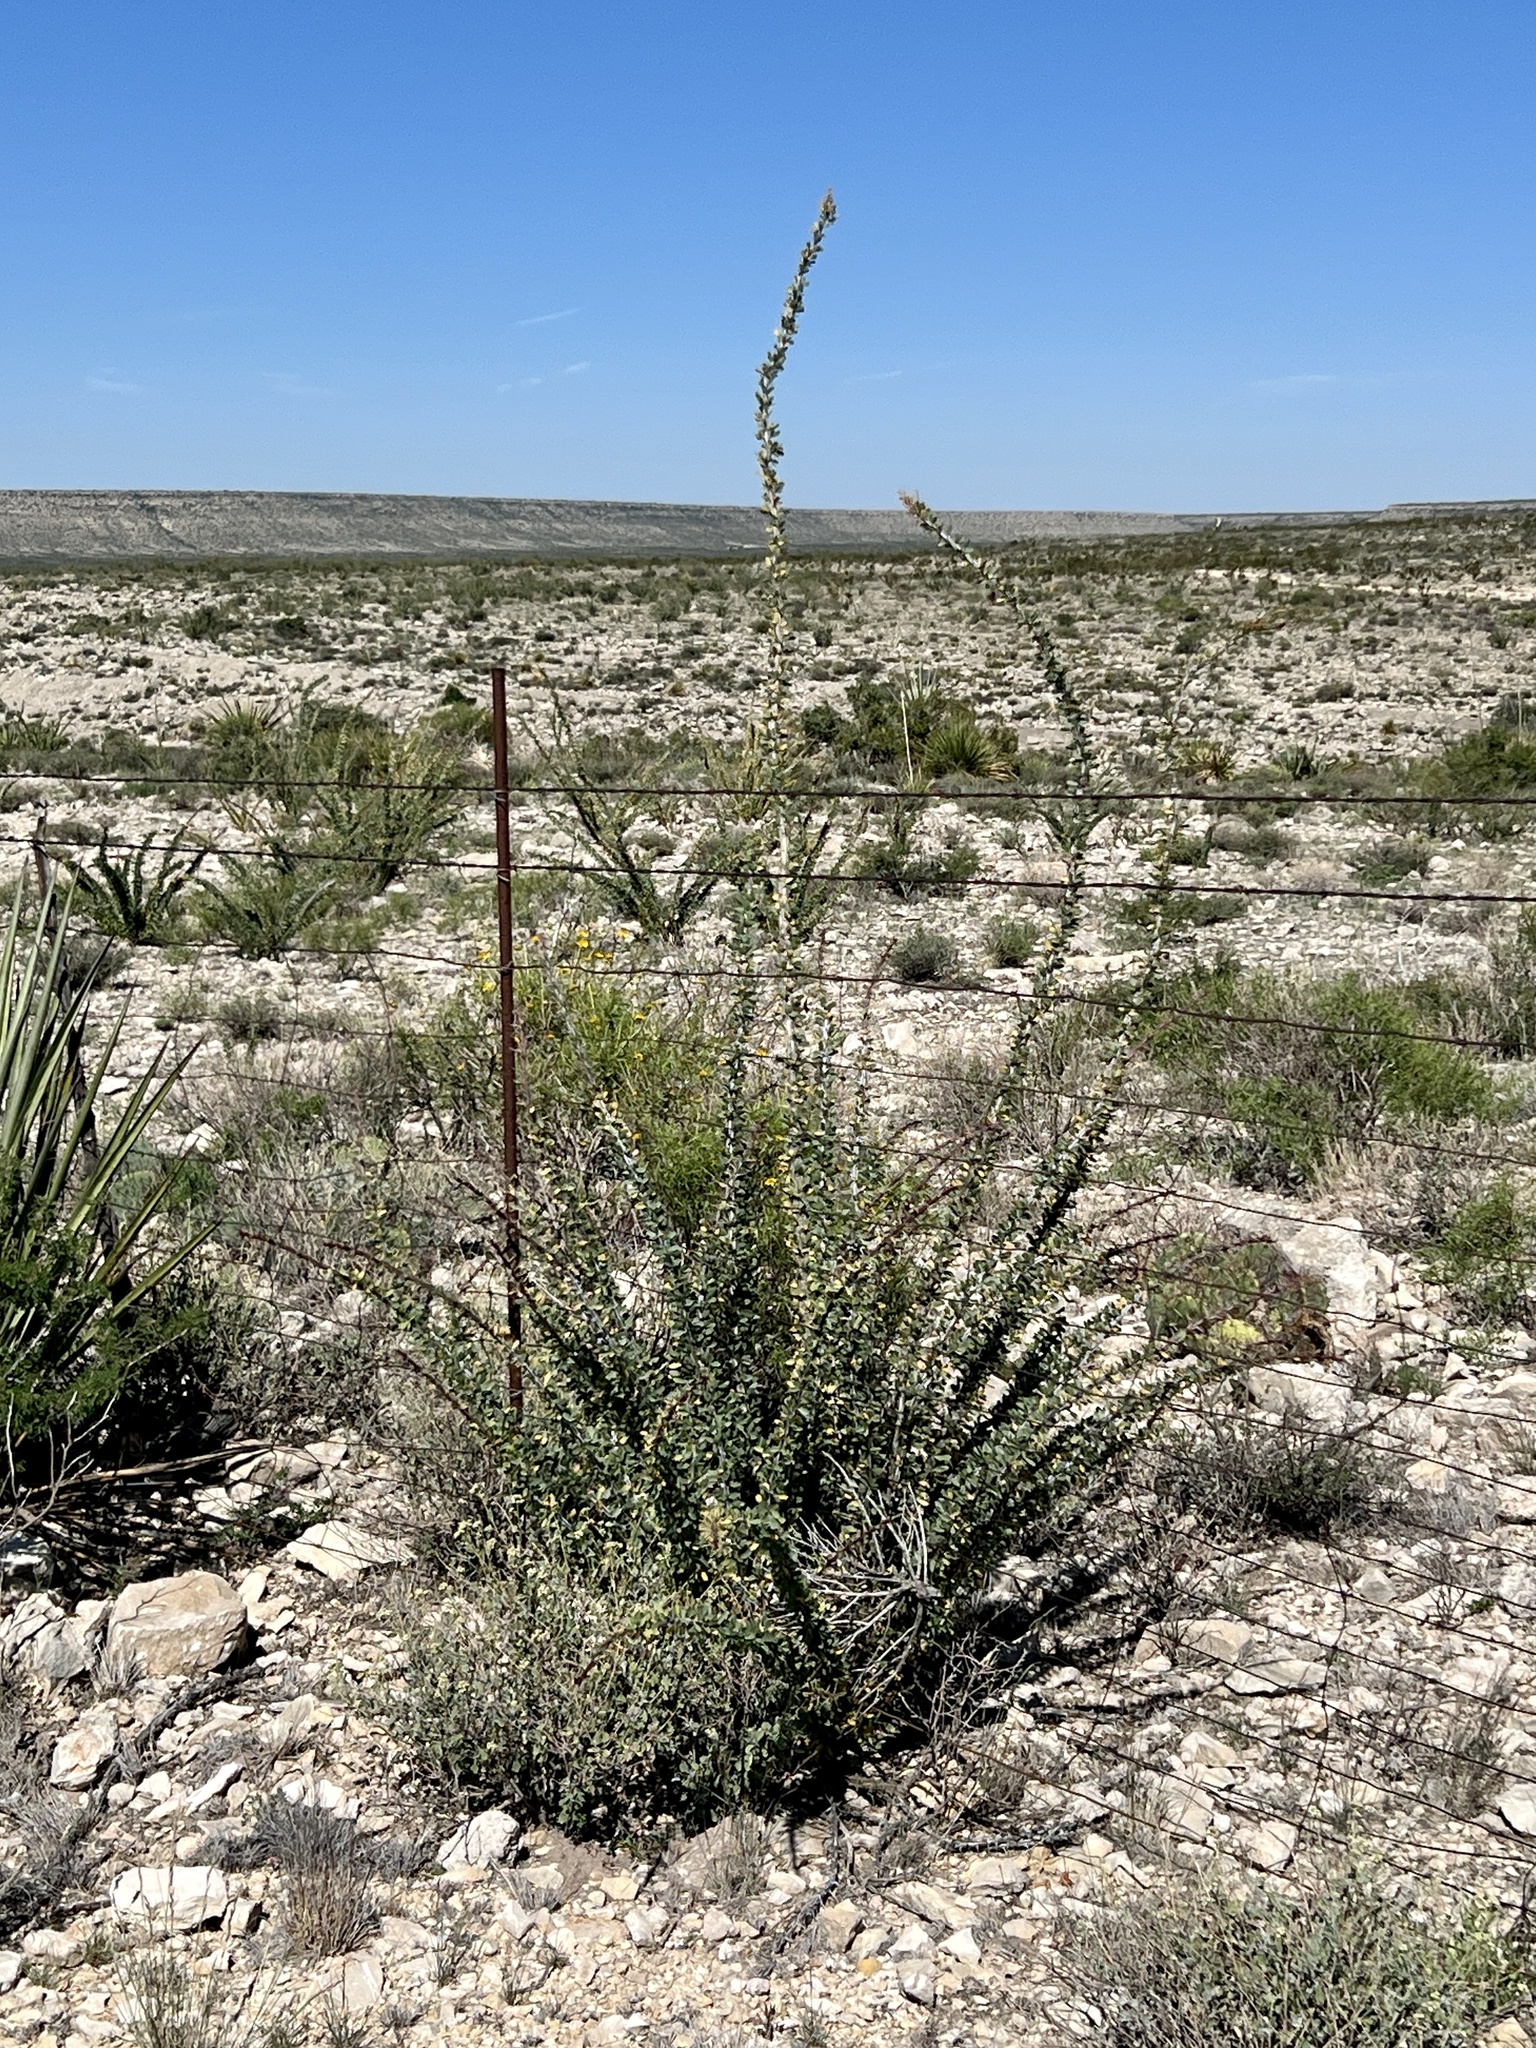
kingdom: Plantae
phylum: Tracheophyta
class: Magnoliopsida
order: Ericales
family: Fouquieriaceae
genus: Fouquieria
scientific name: Fouquieria splendens
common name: Vine-cactus
